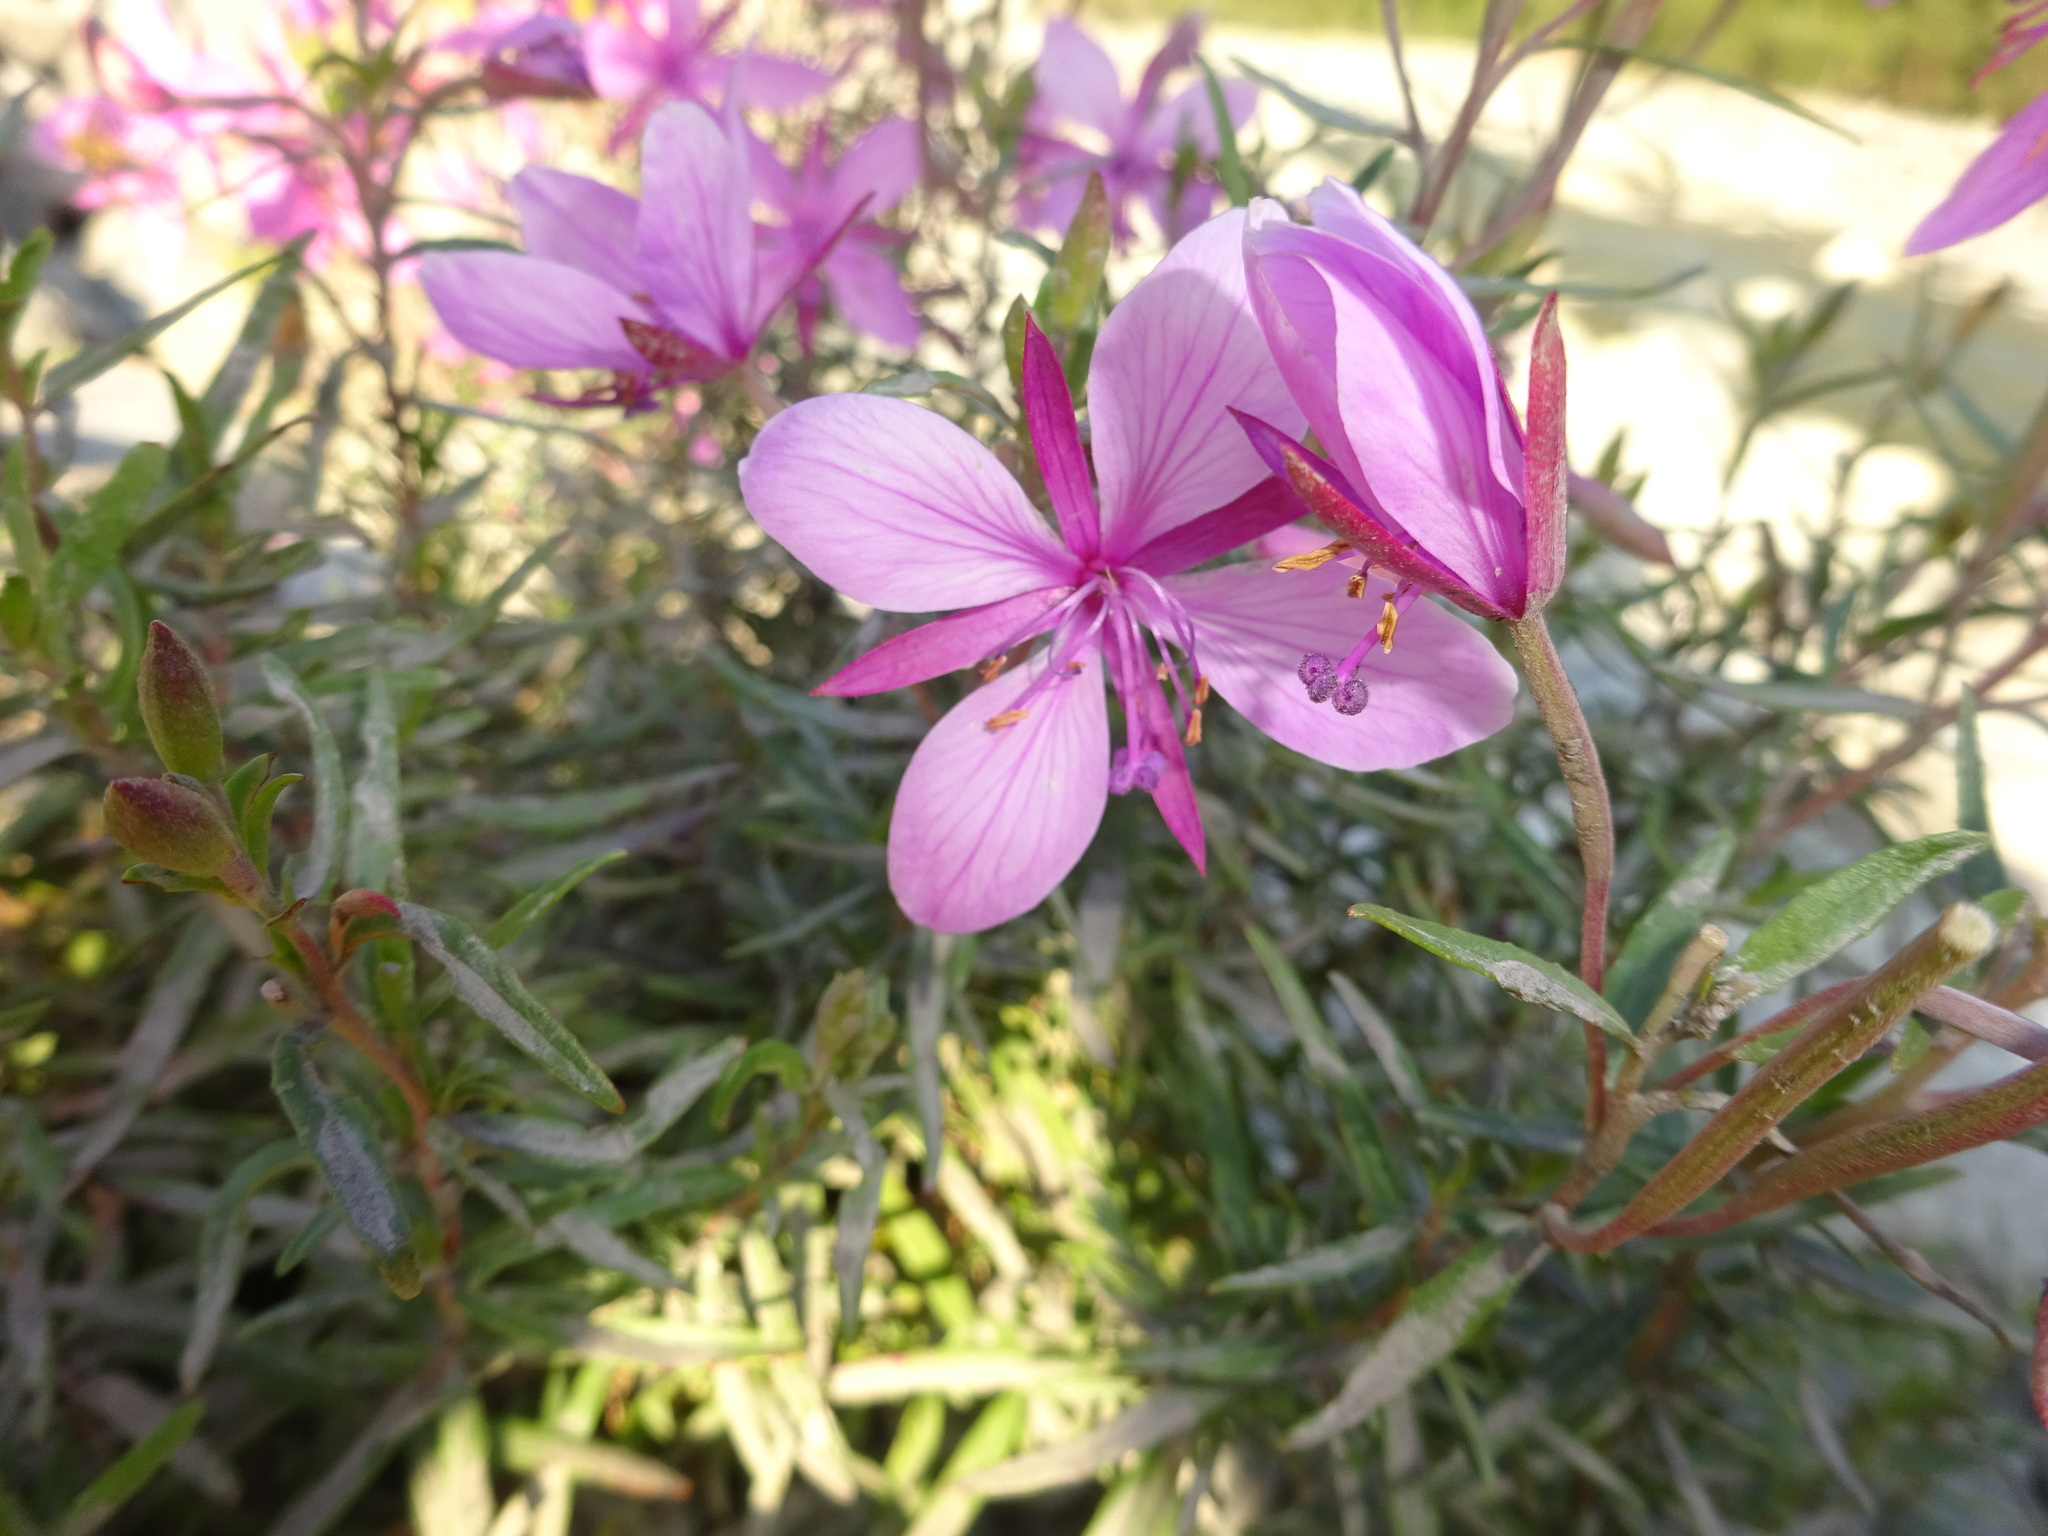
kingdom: Plantae
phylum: Tracheophyta
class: Magnoliopsida
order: Myrtales
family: Onagraceae
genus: Chamaenerion
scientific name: Chamaenerion fleischeri
